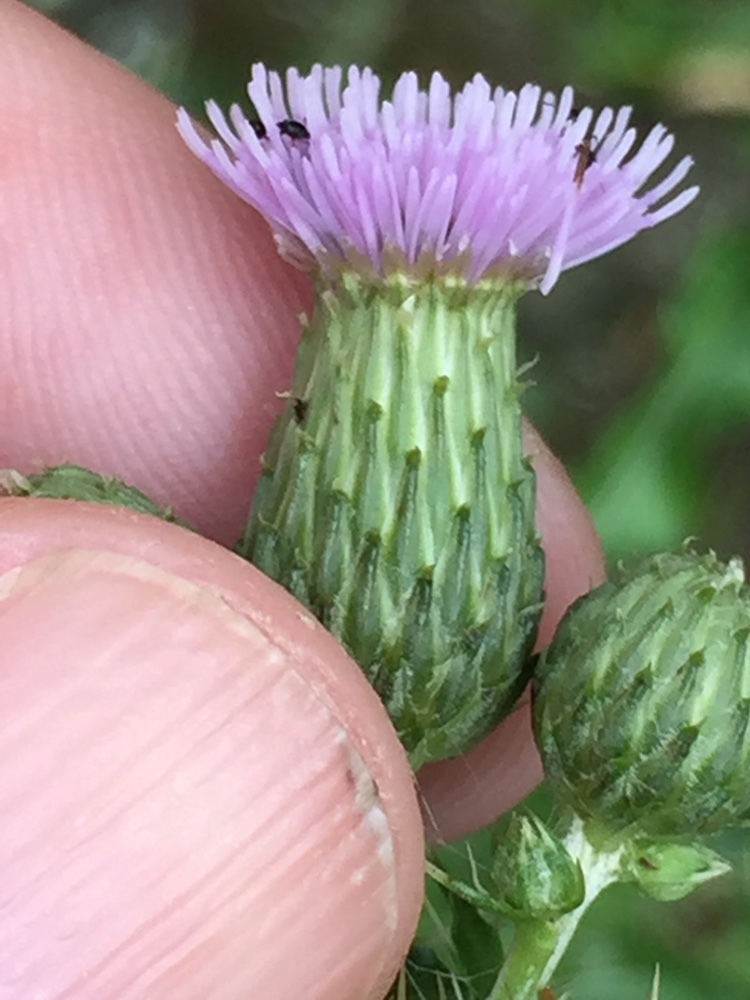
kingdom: Plantae
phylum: Tracheophyta
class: Magnoliopsida
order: Asterales
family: Asteraceae
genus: Cirsium
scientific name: Cirsium arvense
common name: Creeping thistle
